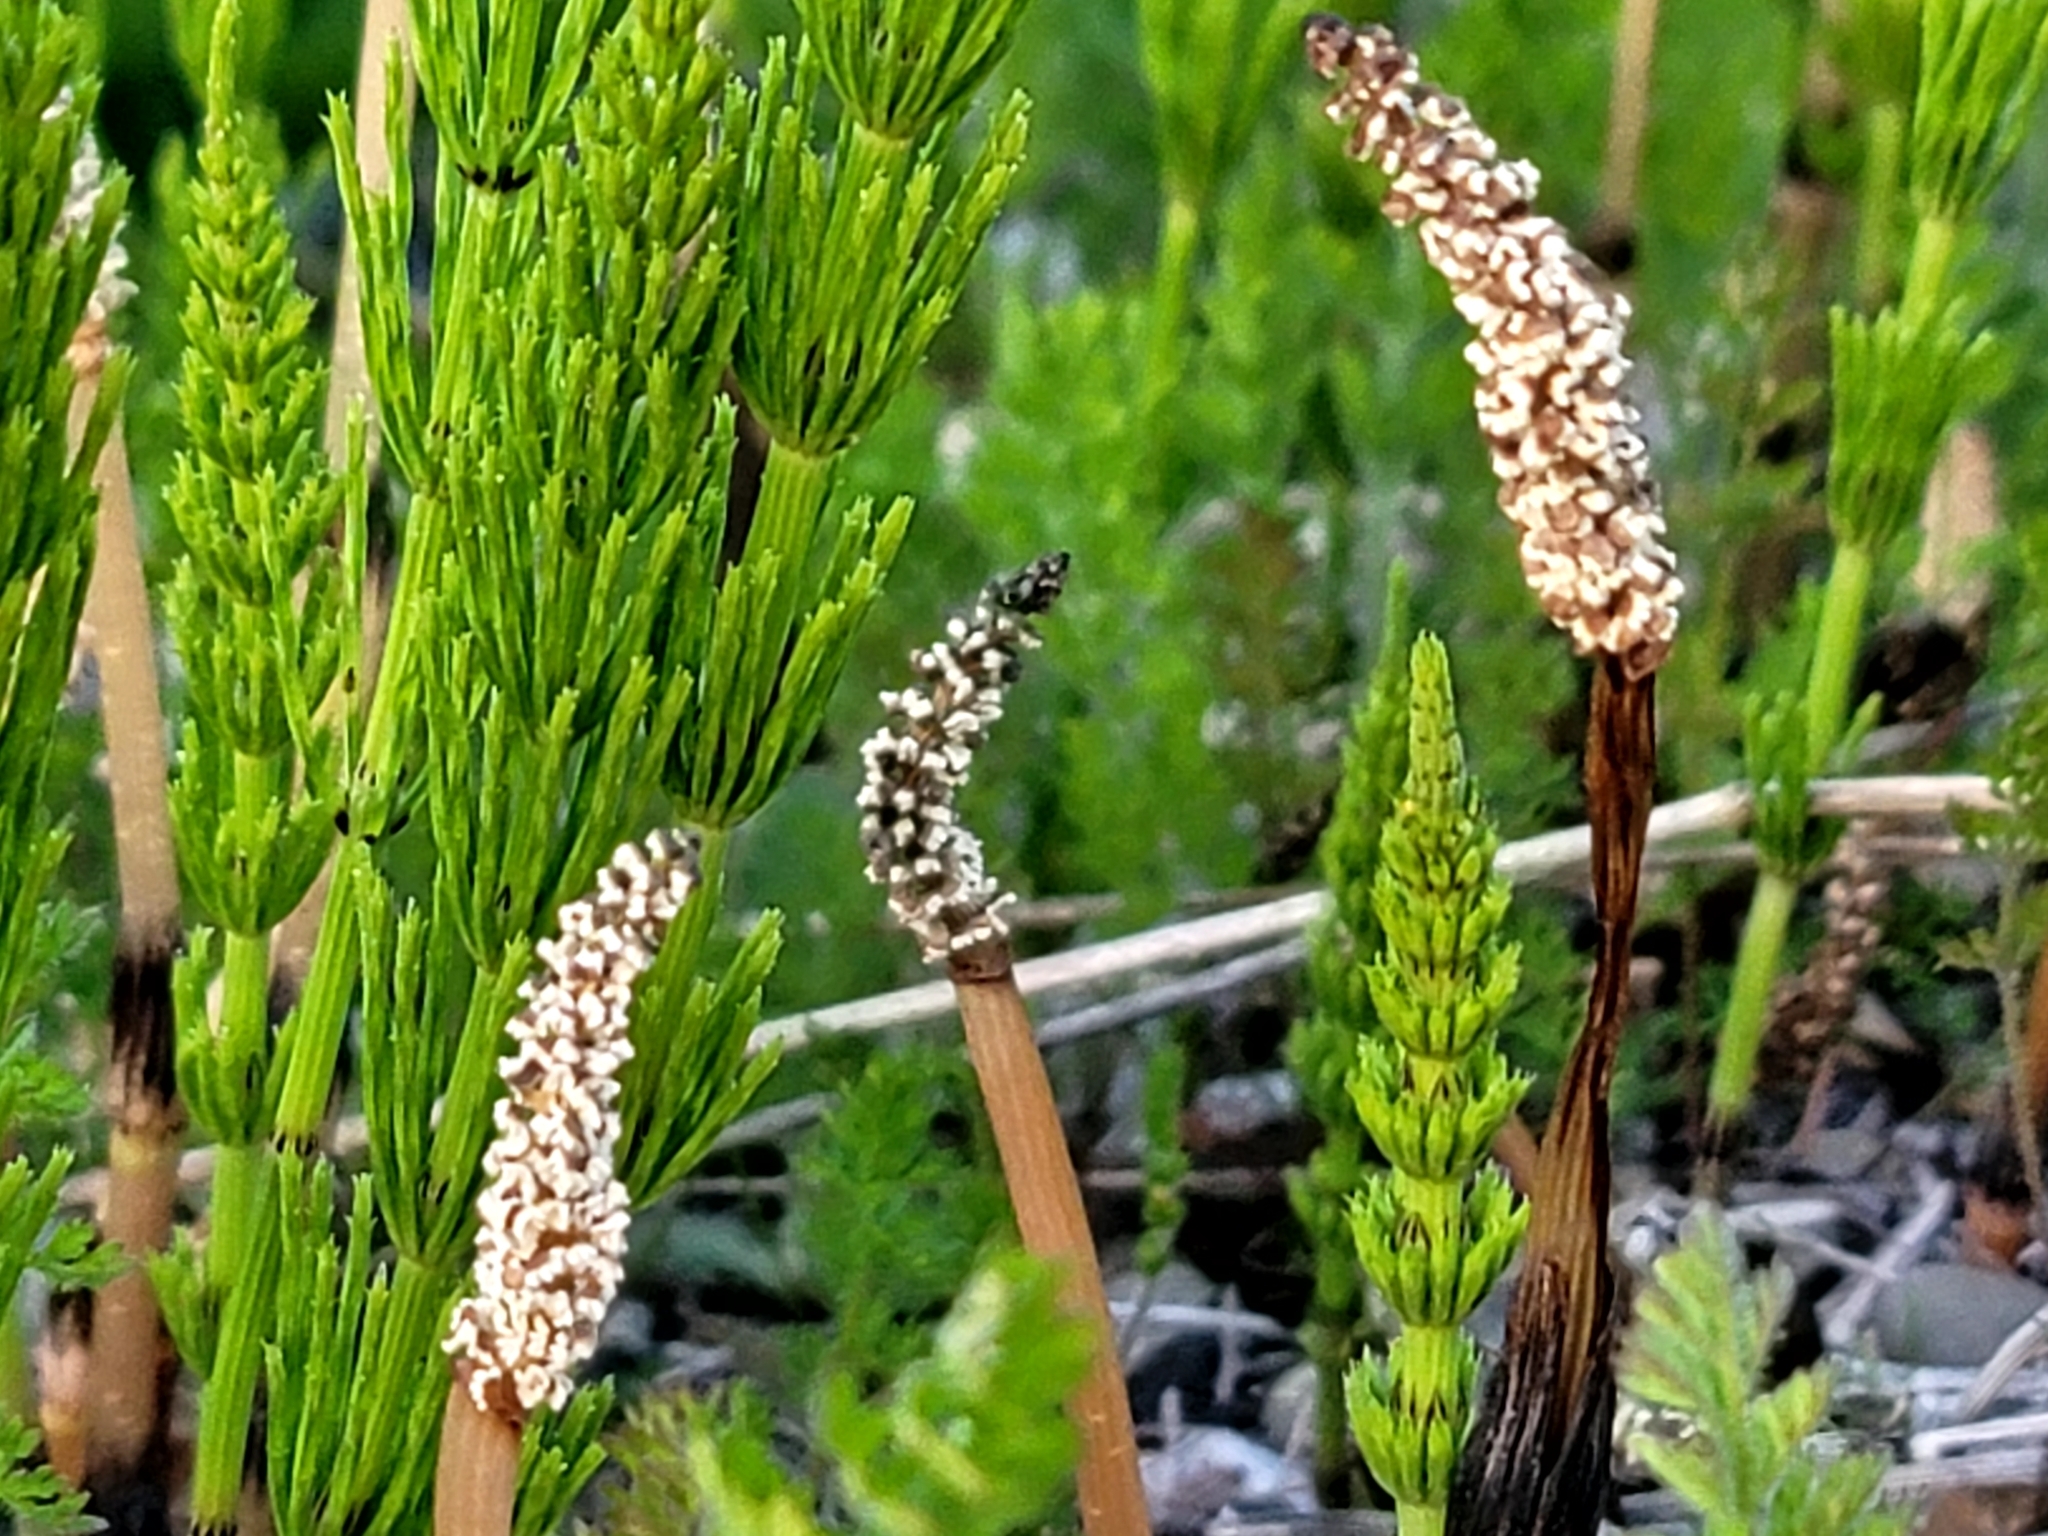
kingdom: Plantae
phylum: Tracheophyta
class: Polypodiopsida
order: Equisetales
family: Equisetaceae
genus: Equisetum
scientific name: Equisetum arvense
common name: Field horsetail
